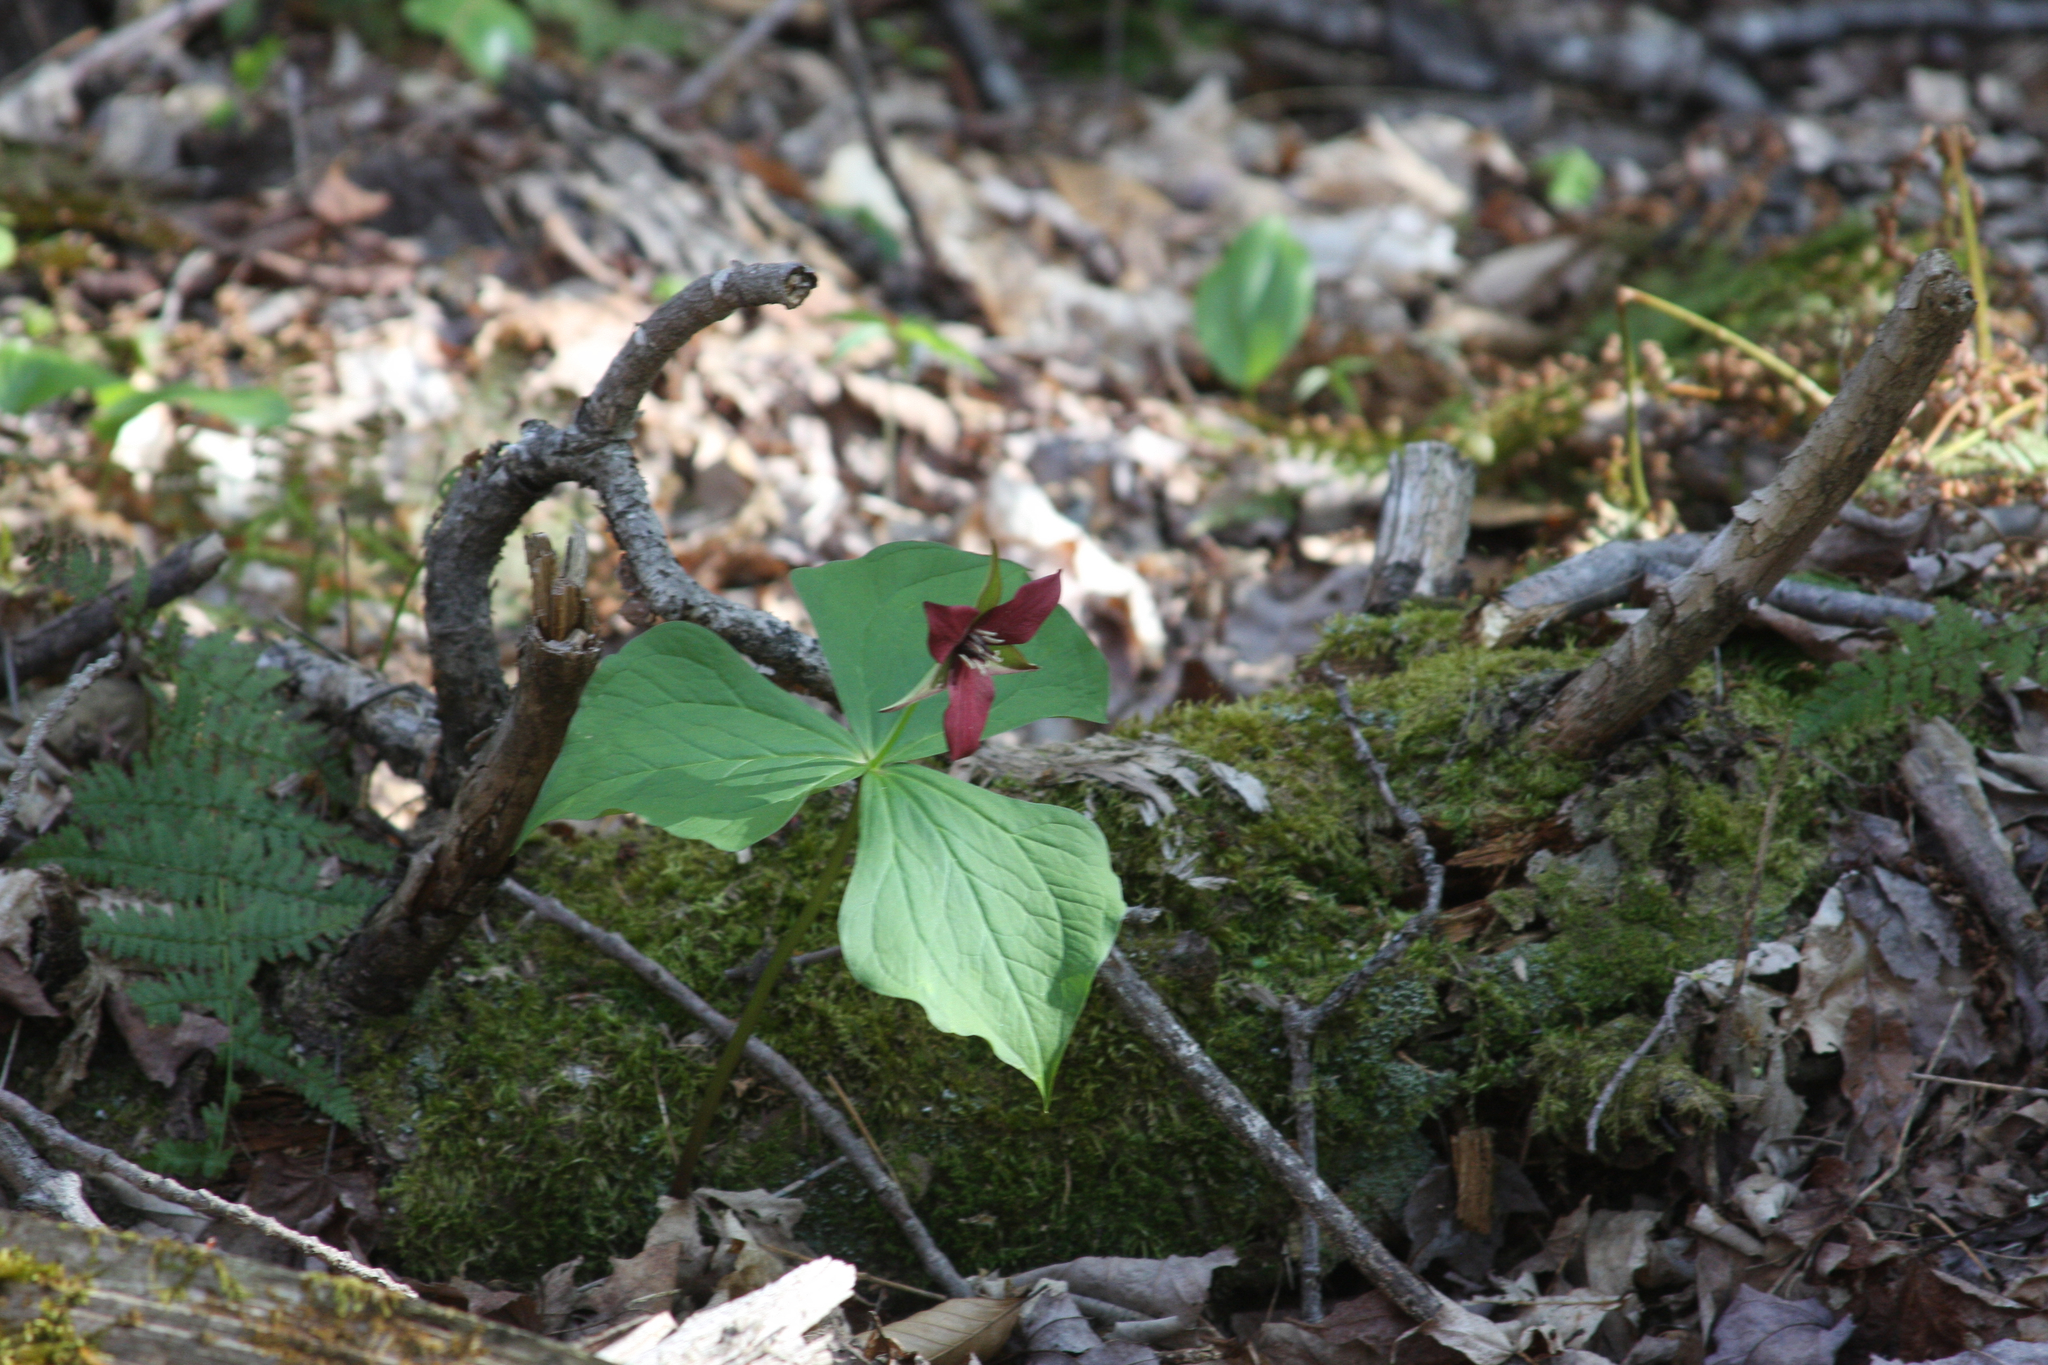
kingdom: Plantae
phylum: Tracheophyta
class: Liliopsida
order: Liliales
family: Melanthiaceae
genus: Trillium
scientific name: Trillium erectum
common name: Purple trillium
